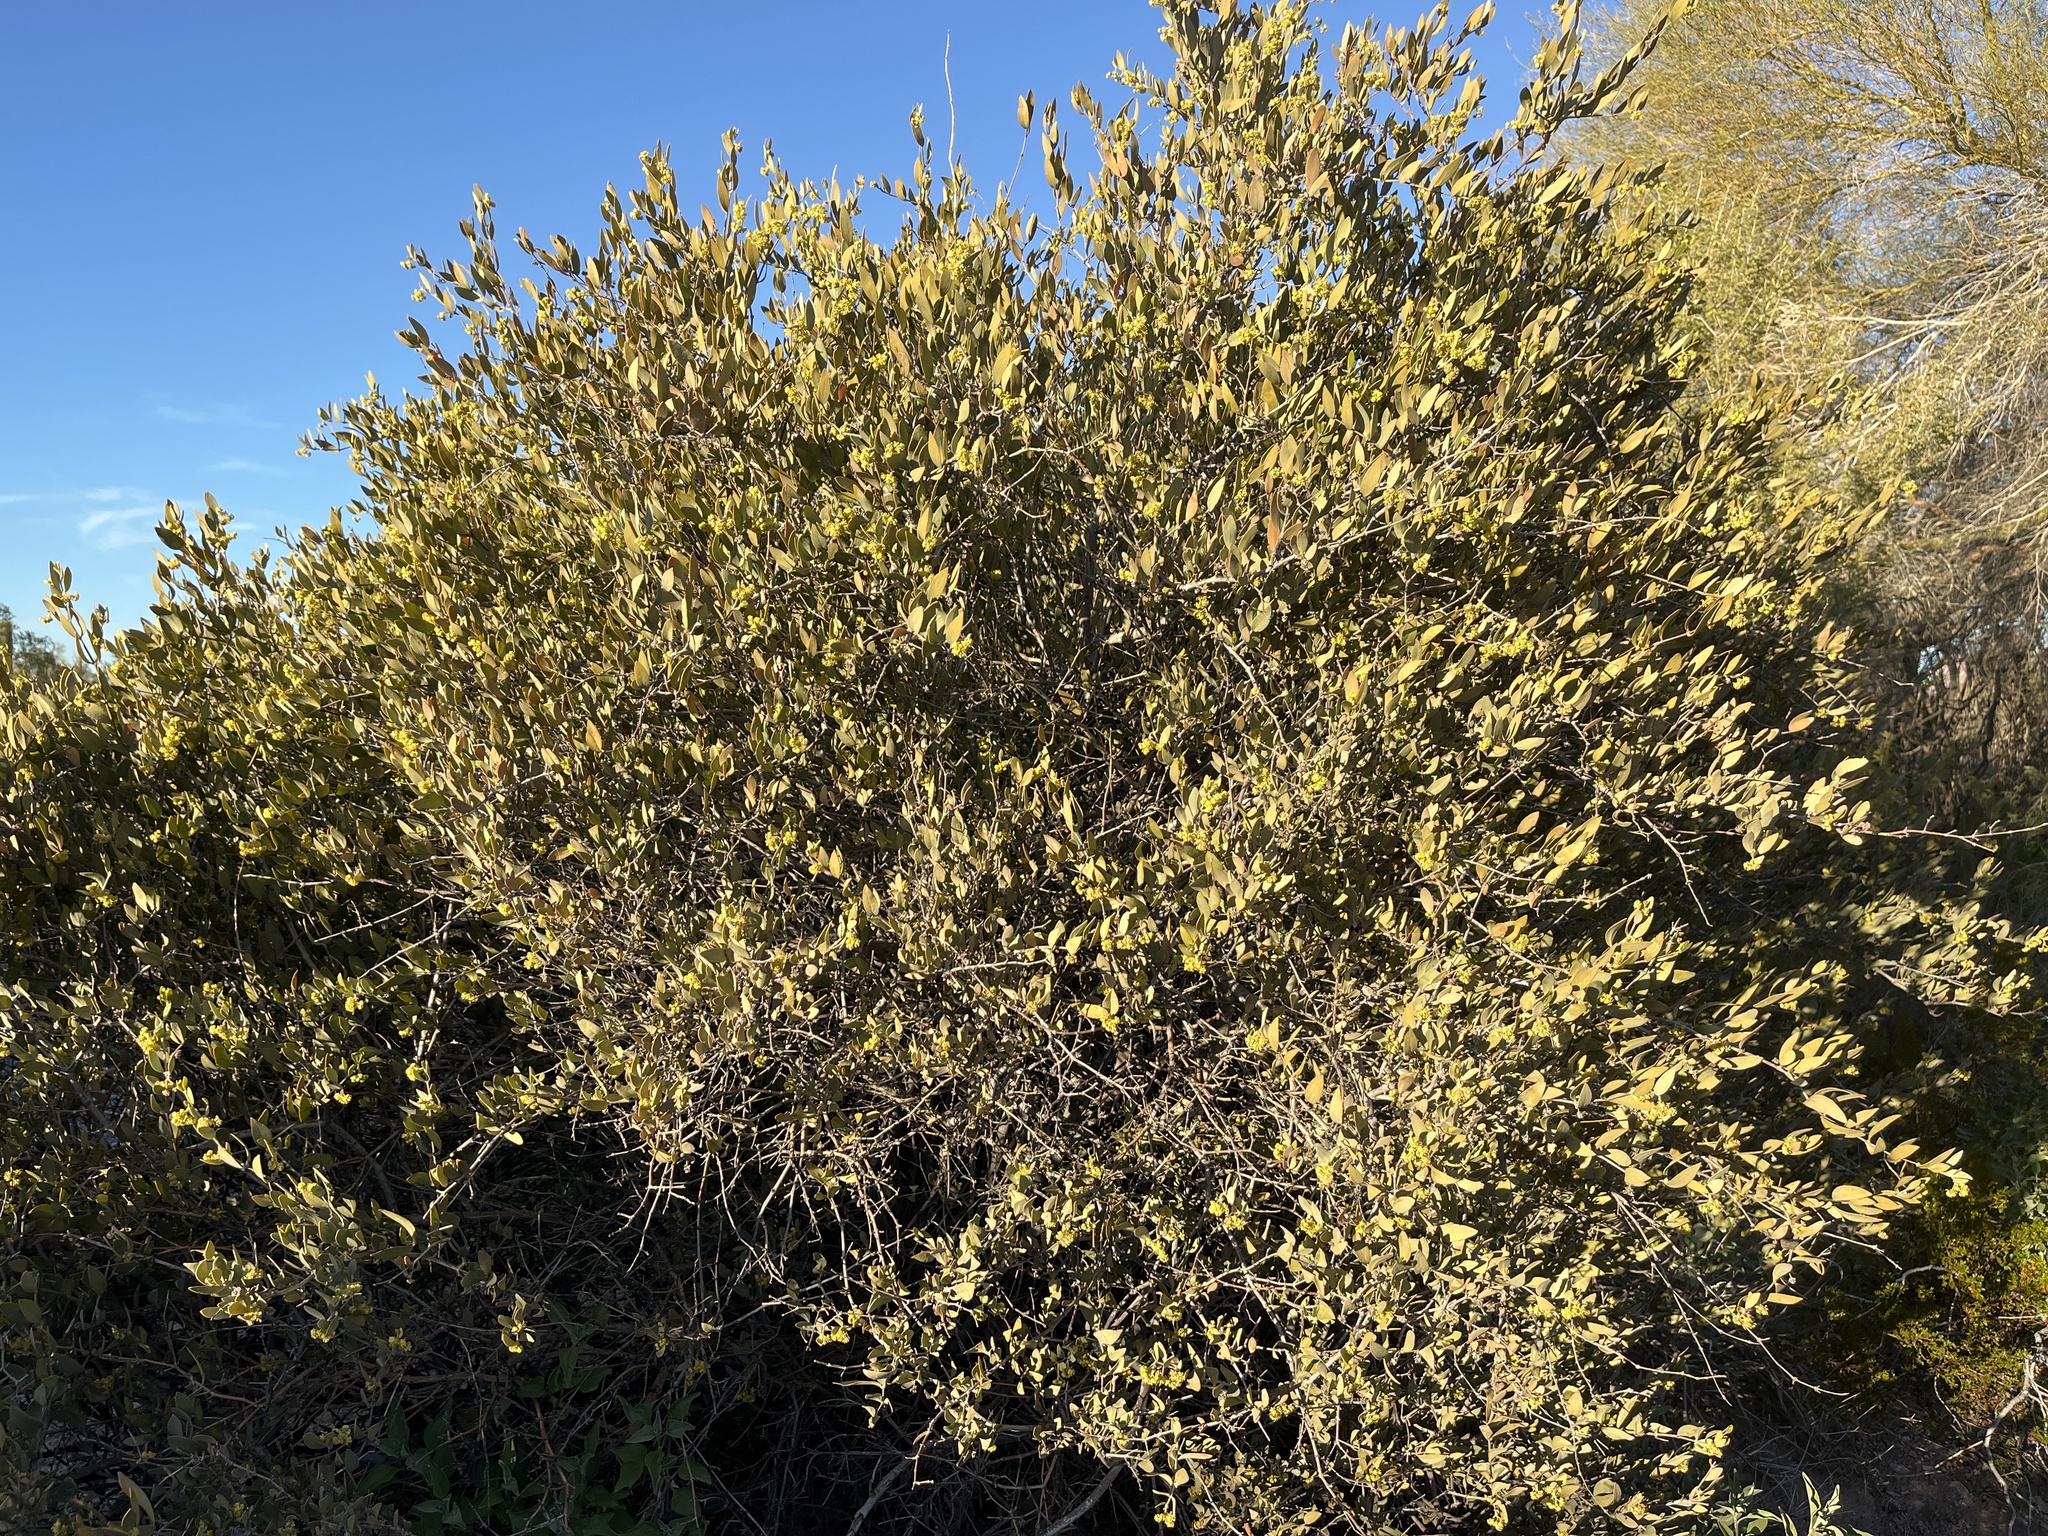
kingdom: Plantae
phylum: Tracheophyta
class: Magnoliopsida
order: Caryophyllales
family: Simmondsiaceae
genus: Simmondsia
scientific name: Simmondsia chinensis
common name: Jojoba
